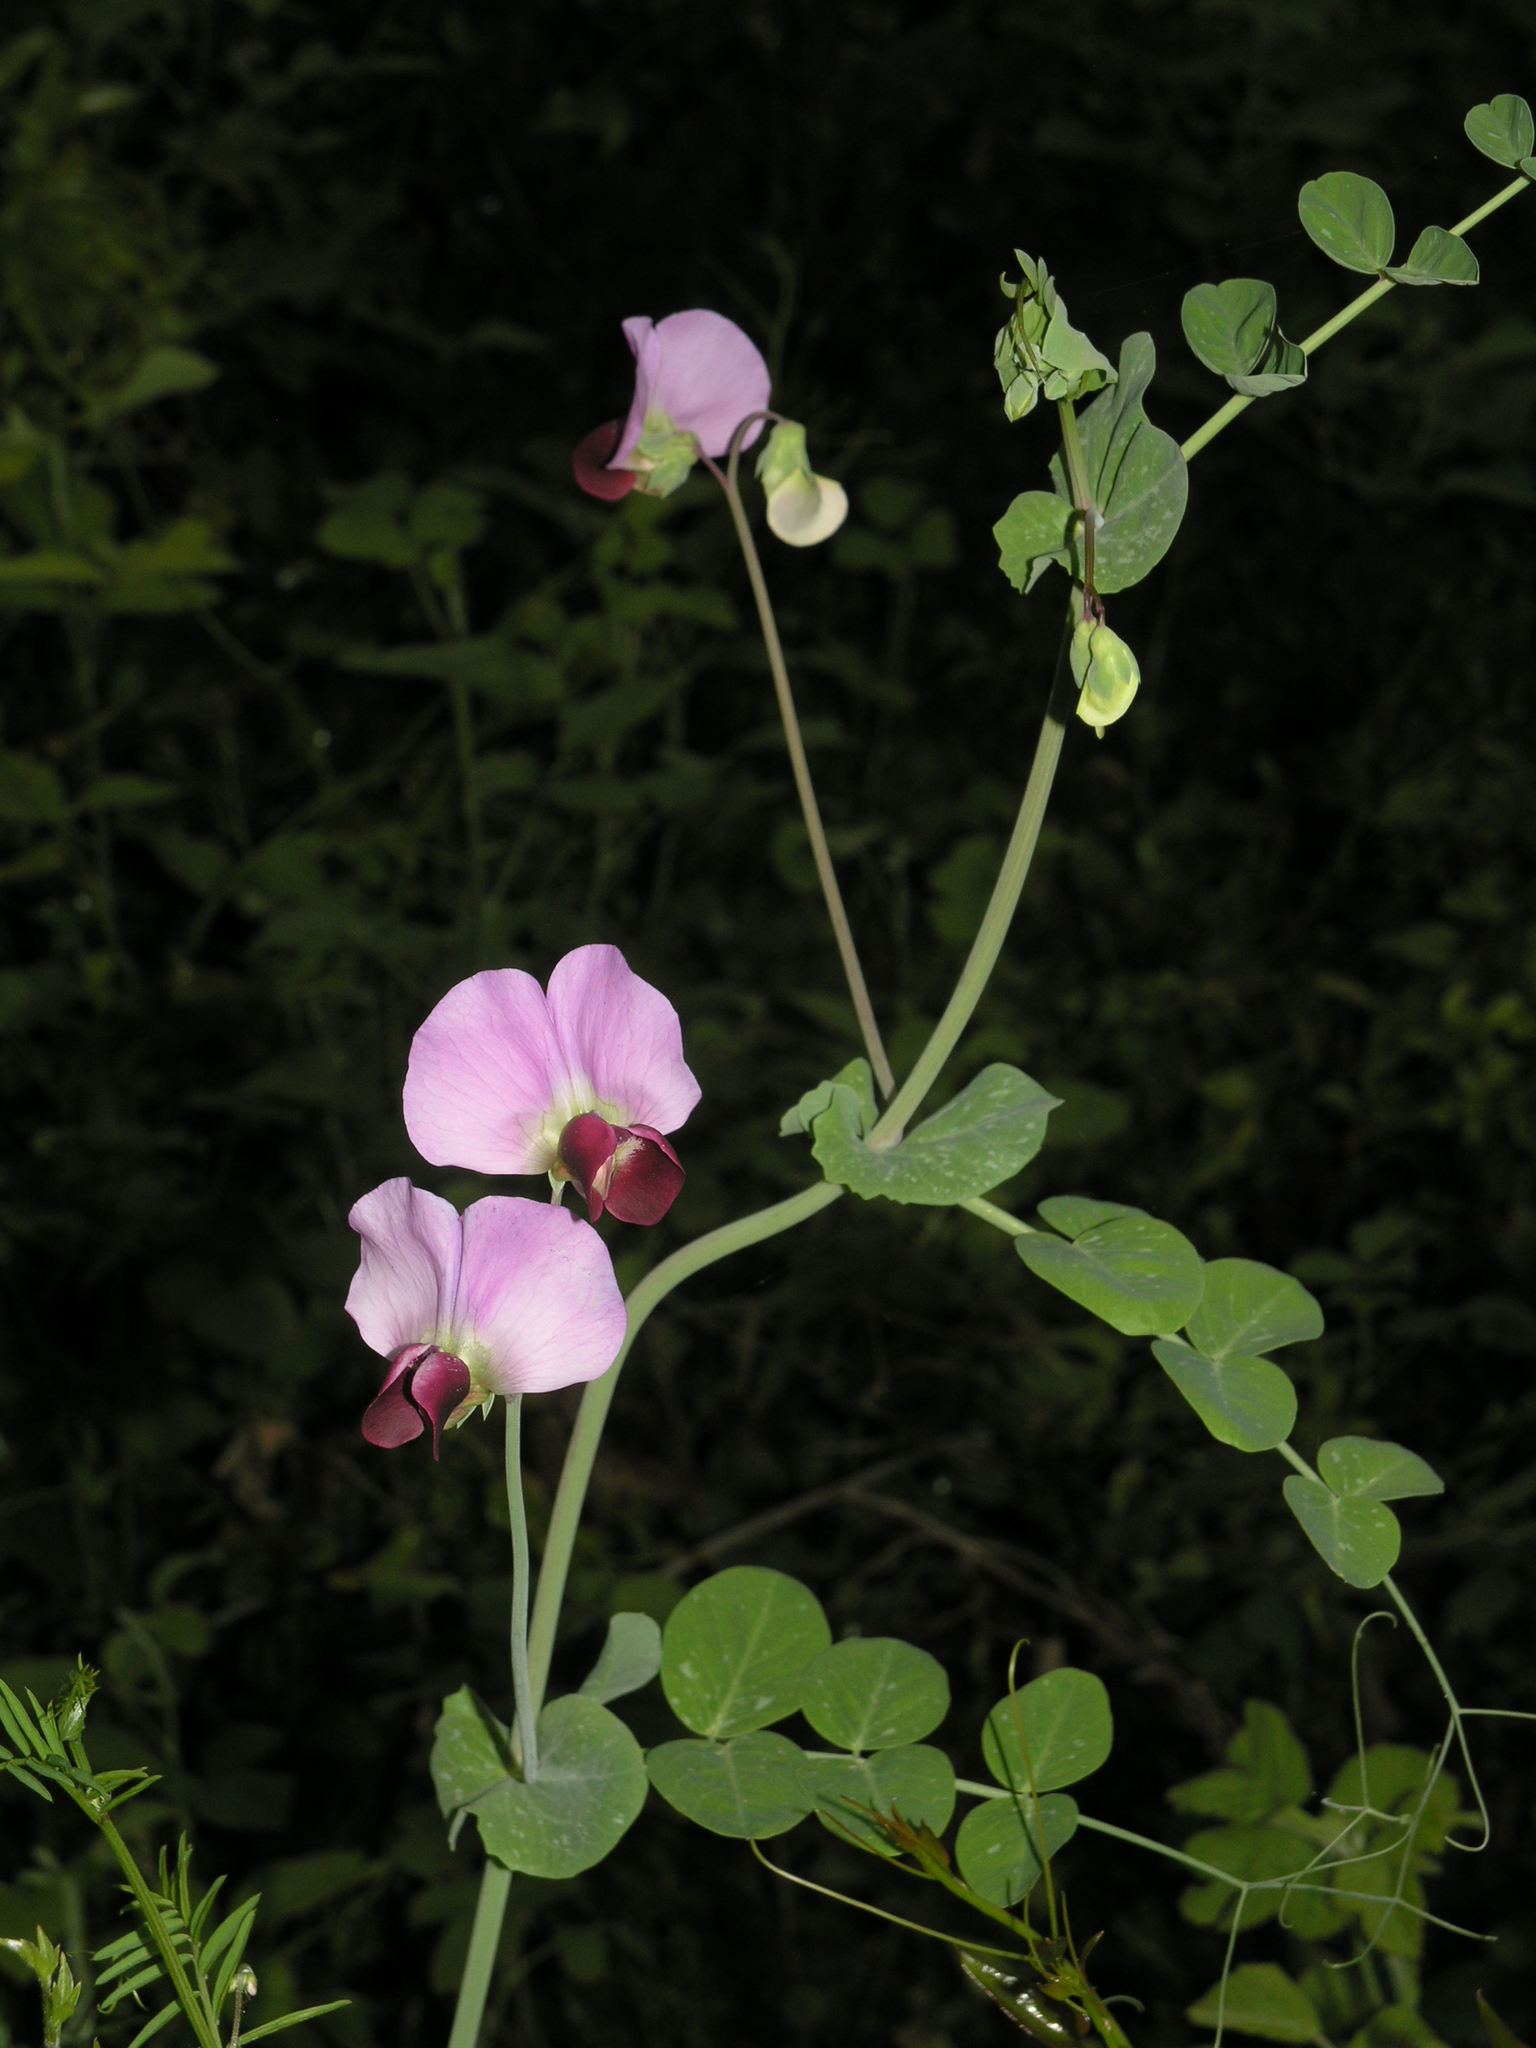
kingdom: Plantae
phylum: Tracheophyta
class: Magnoliopsida
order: Fabales
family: Fabaceae
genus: Lathyrus
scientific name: Lathyrus oleraceus
